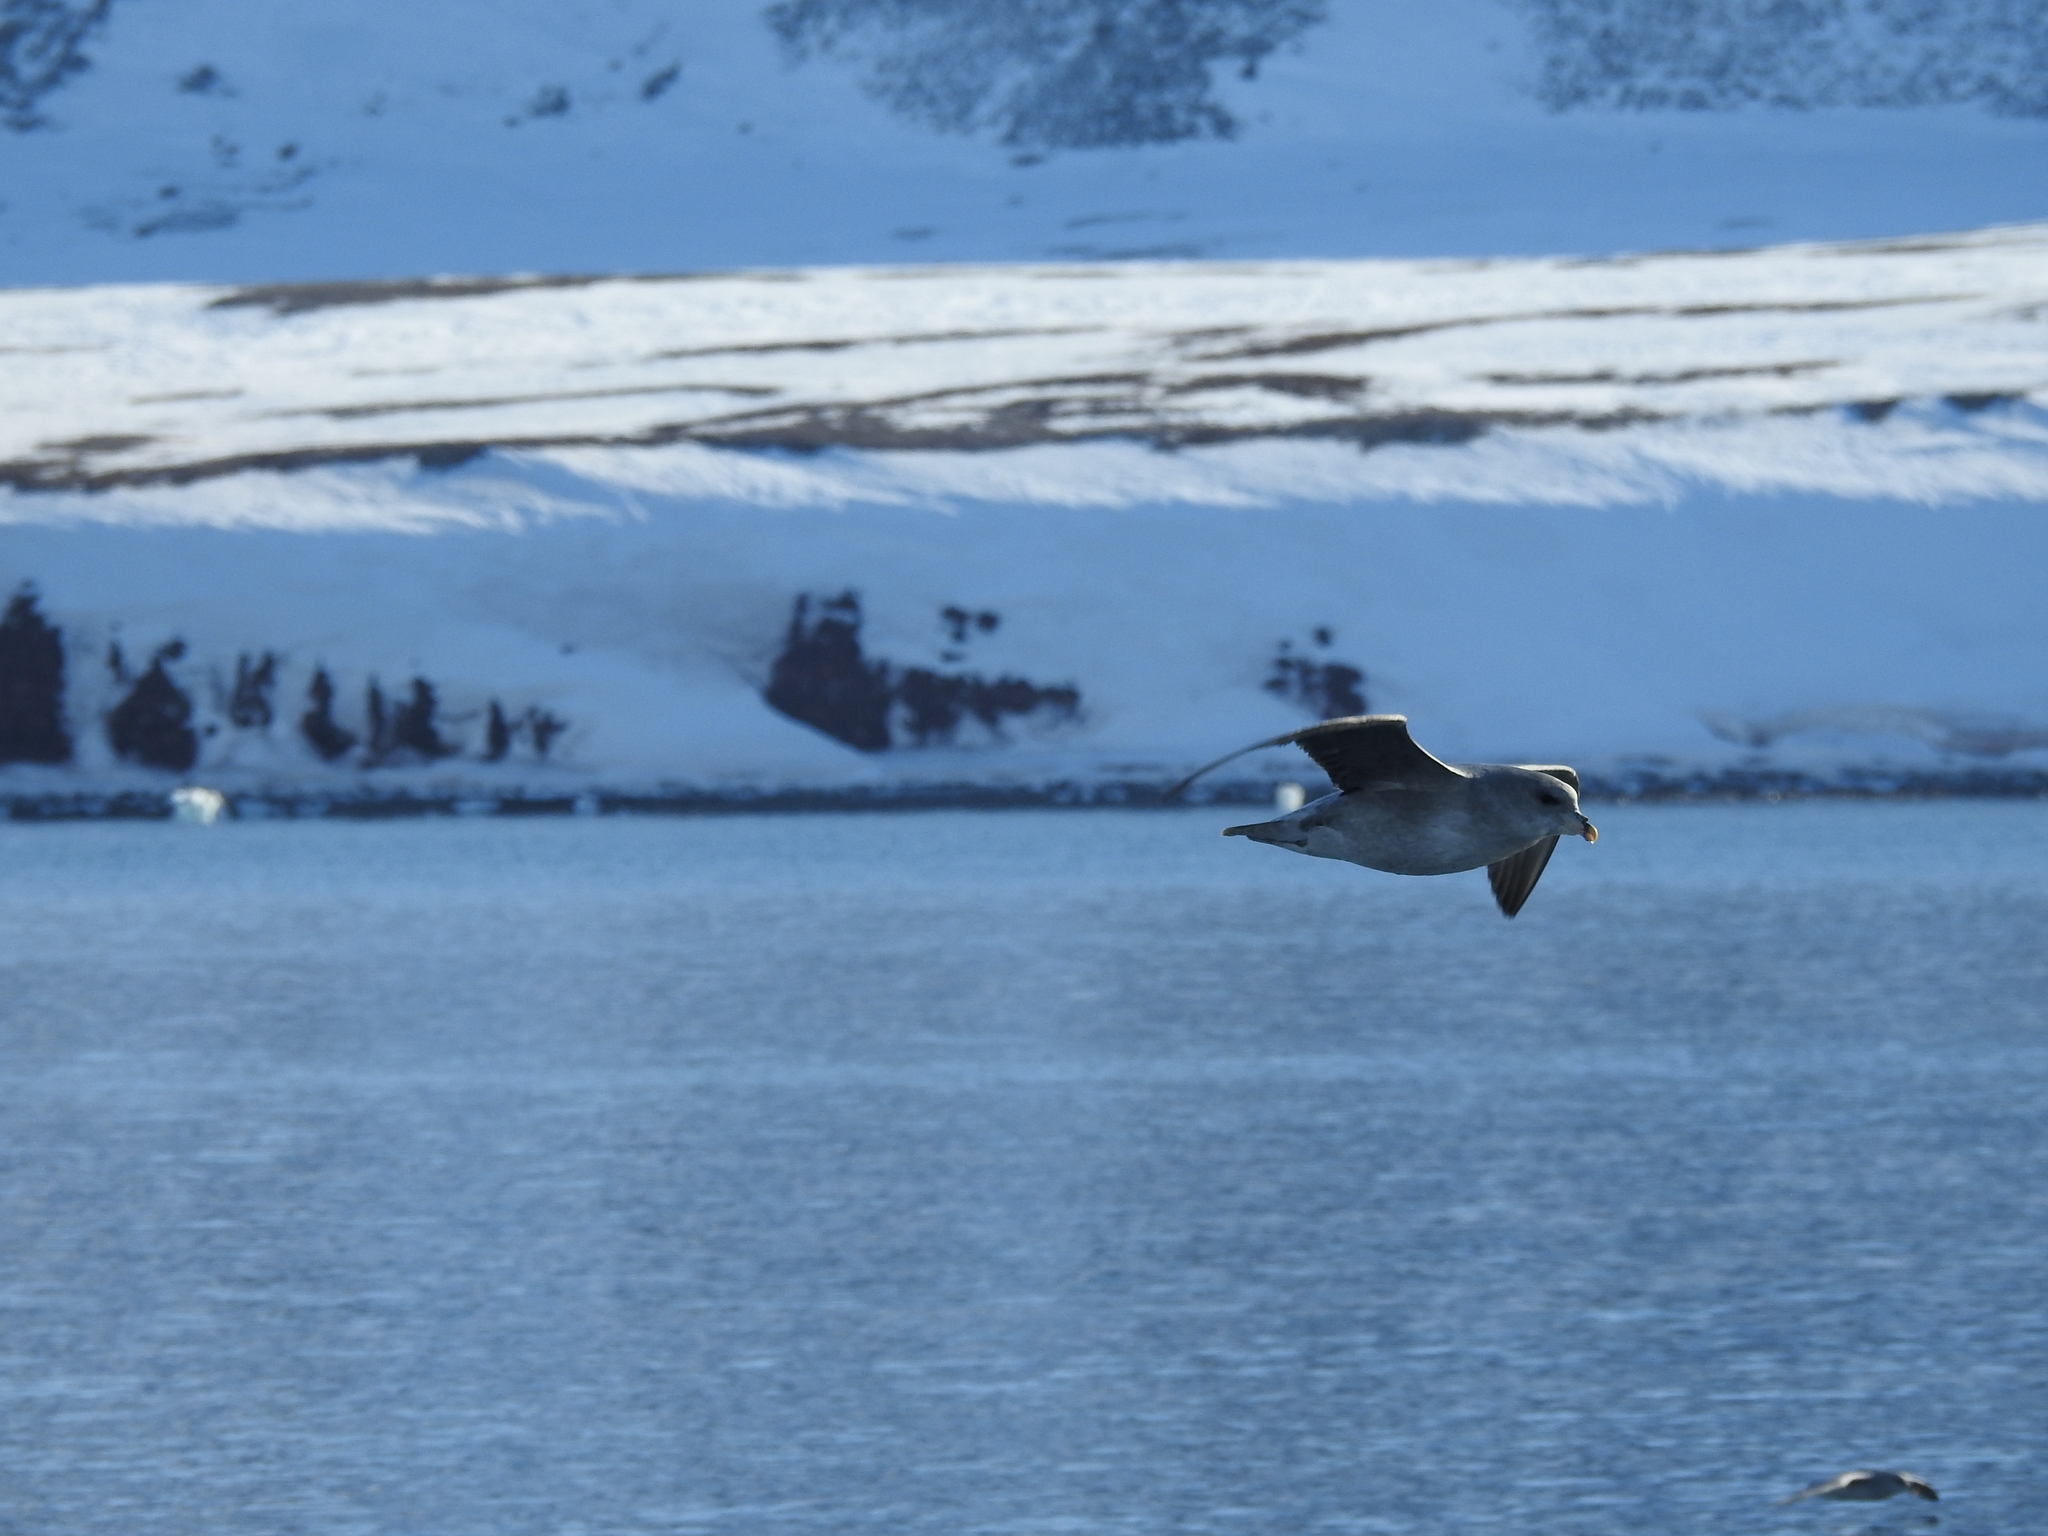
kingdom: Animalia
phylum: Chordata
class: Aves
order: Procellariiformes
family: Procellariidae
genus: Fulmarus
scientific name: Fulmarus glacialis
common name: Northern fulmar
